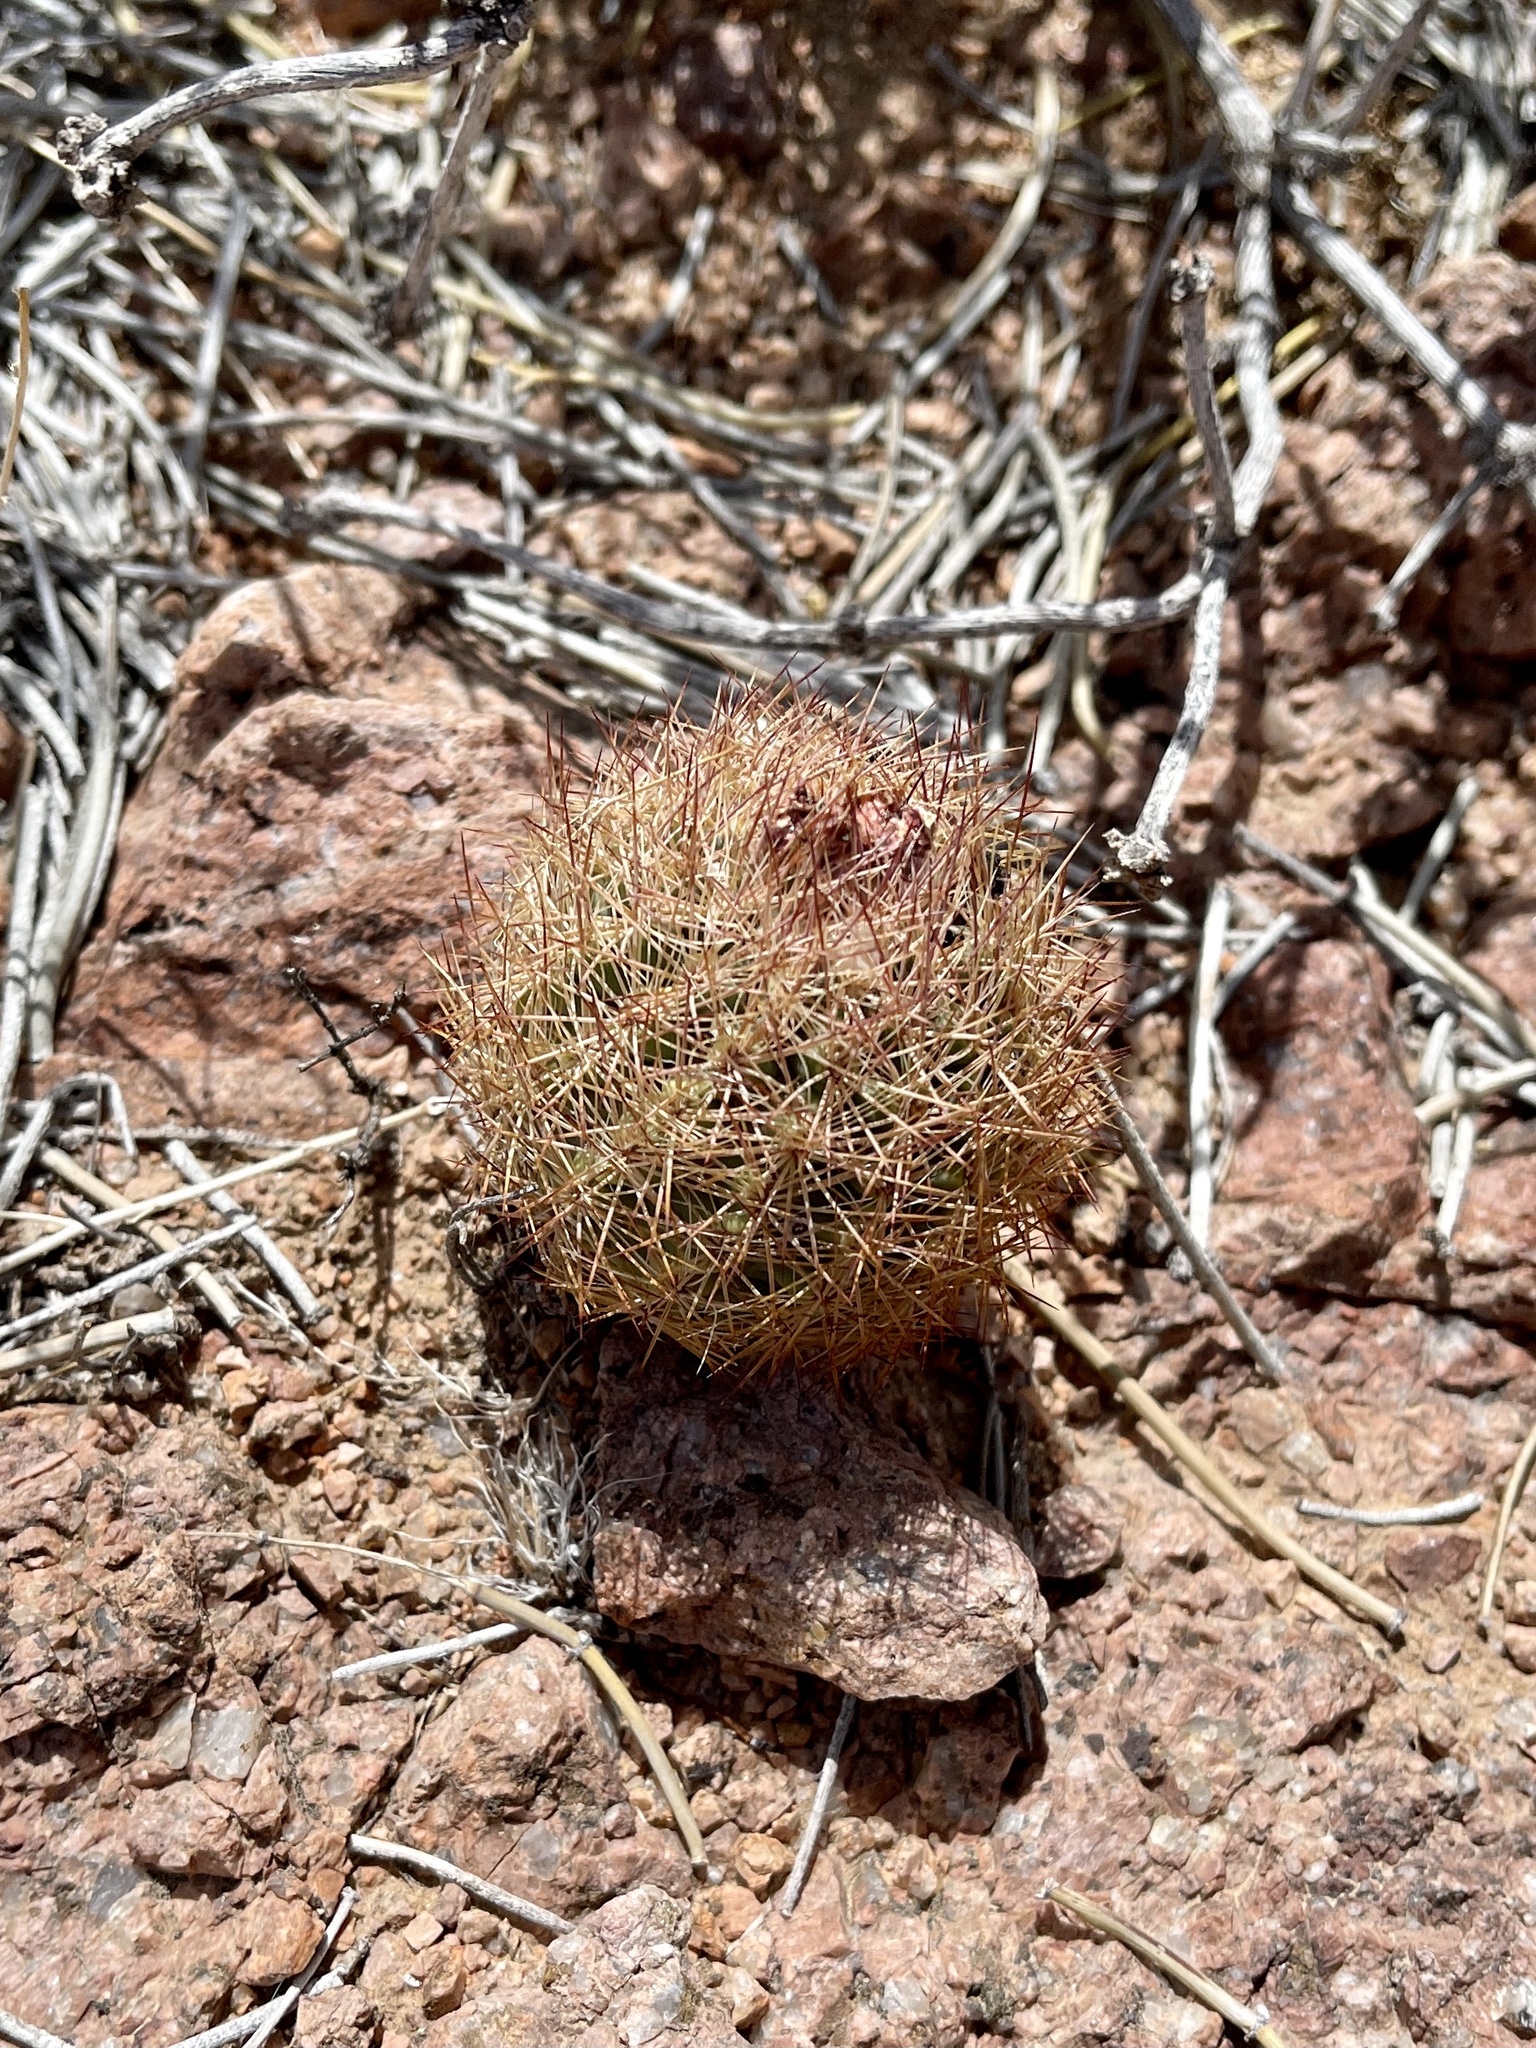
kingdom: Plantae
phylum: Tracheophyta
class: Magnoliopsida
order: Caryophyllales
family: Cactaceae
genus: Sclerocactus
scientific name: Sclerocactus intertextus
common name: White fish-hook cactus
